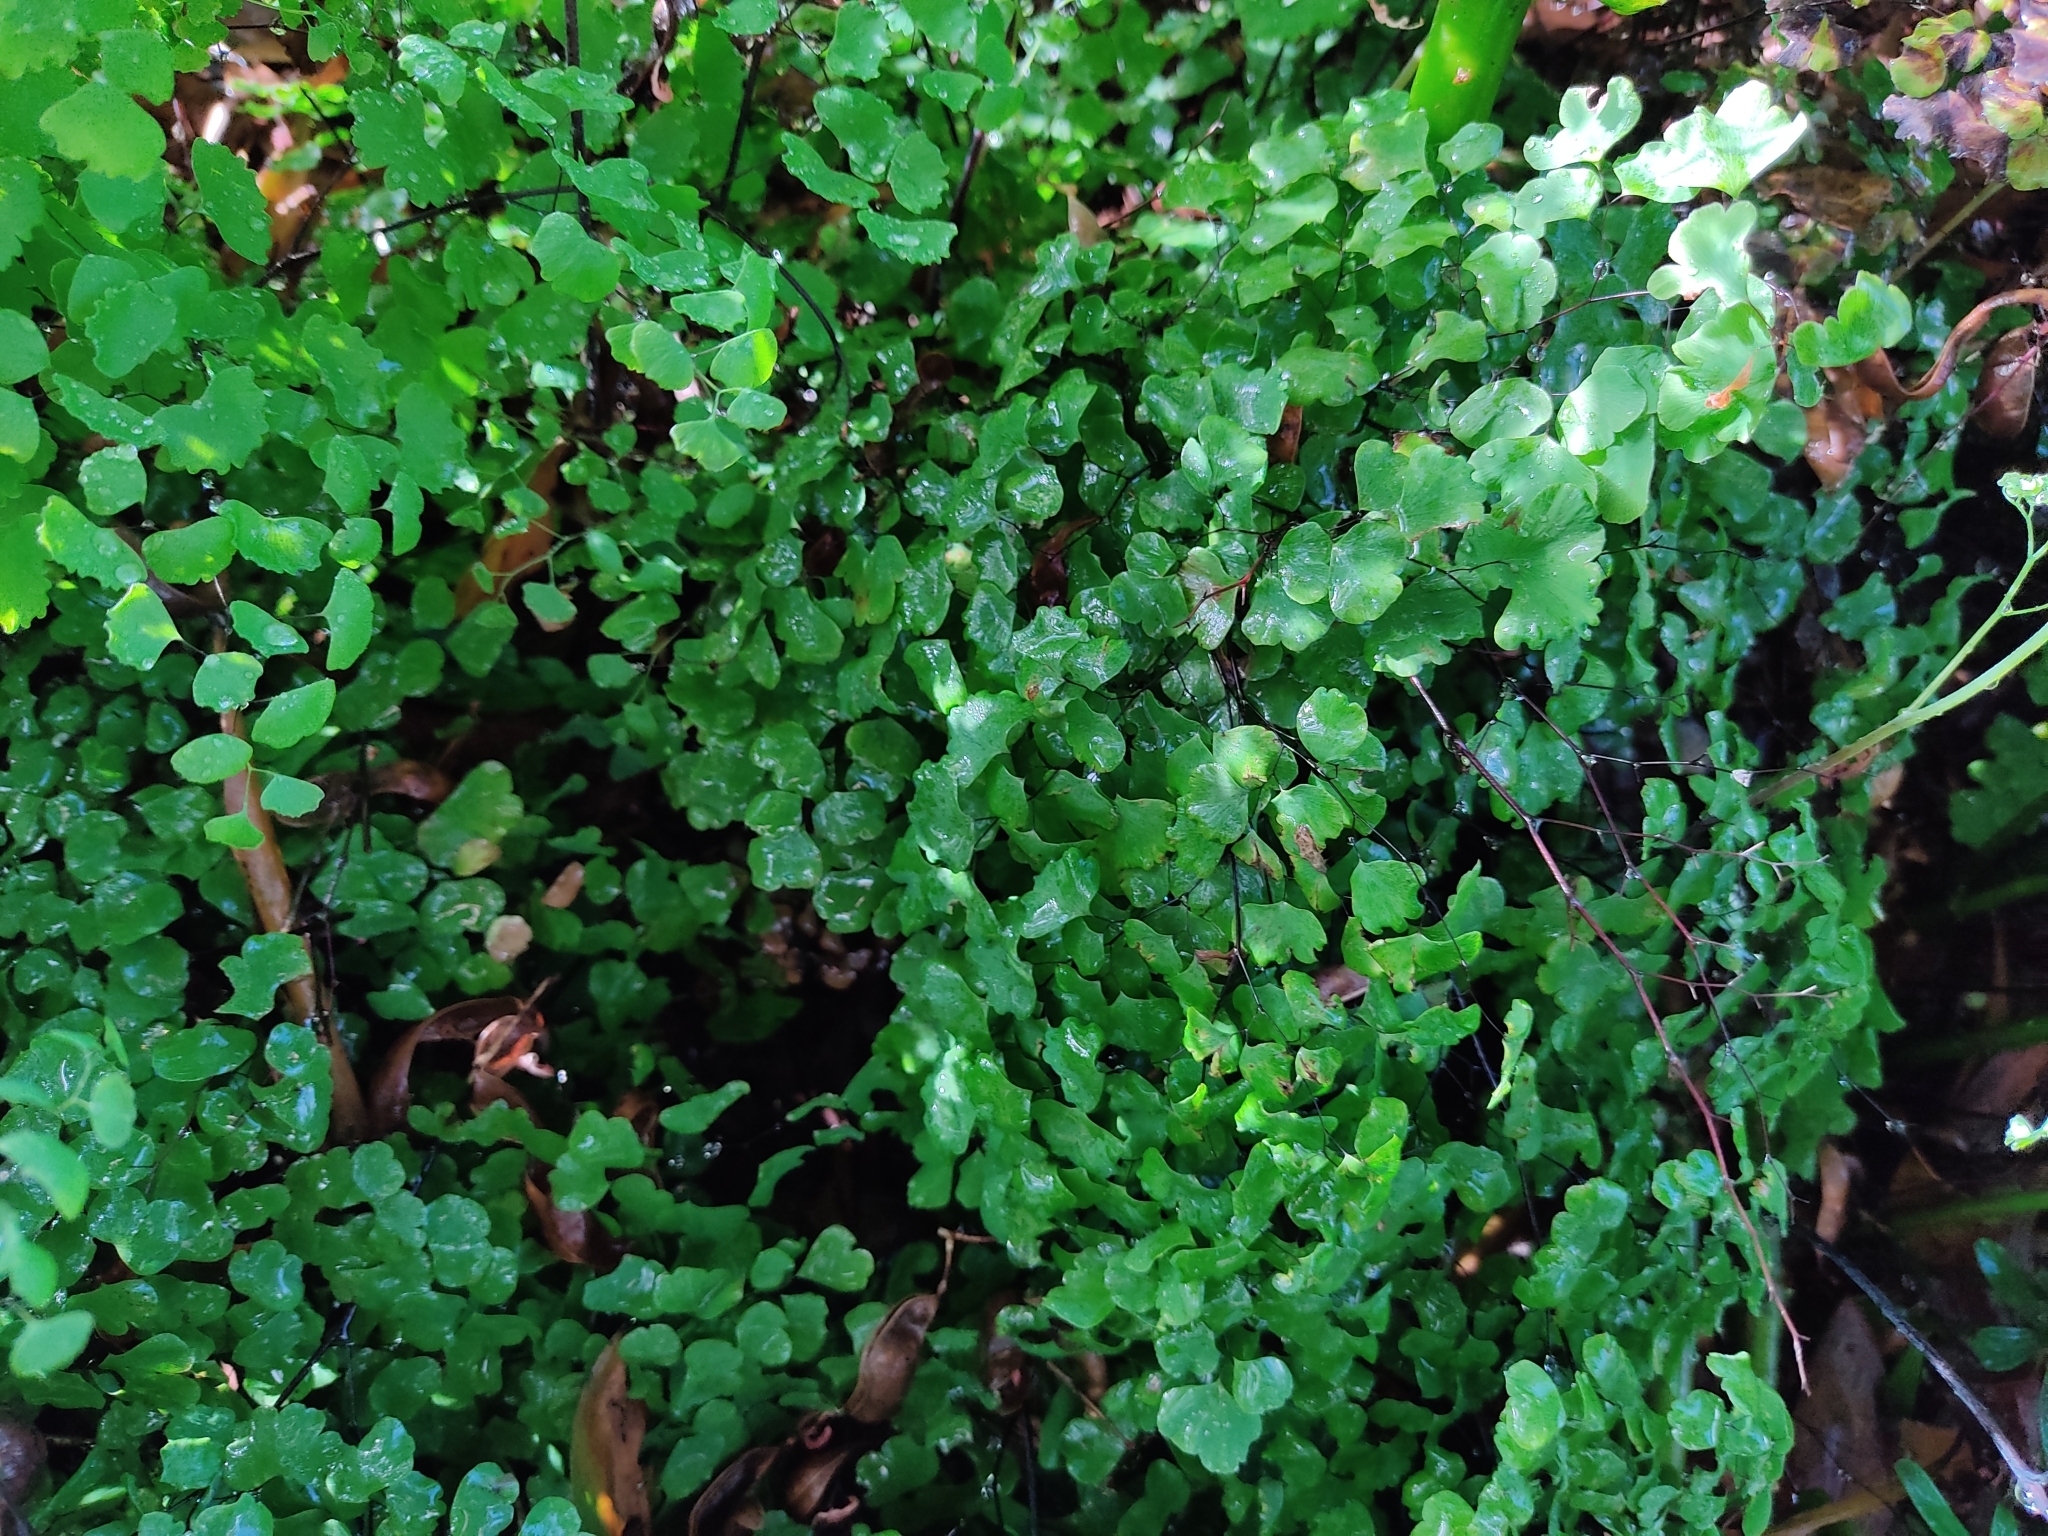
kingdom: Plantae
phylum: Tracheophyta
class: Polypodiopsida
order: Polypodiales
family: Pteridaceae
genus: Adiantum
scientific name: Adiantum poiretii
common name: Mexican maidenhair
